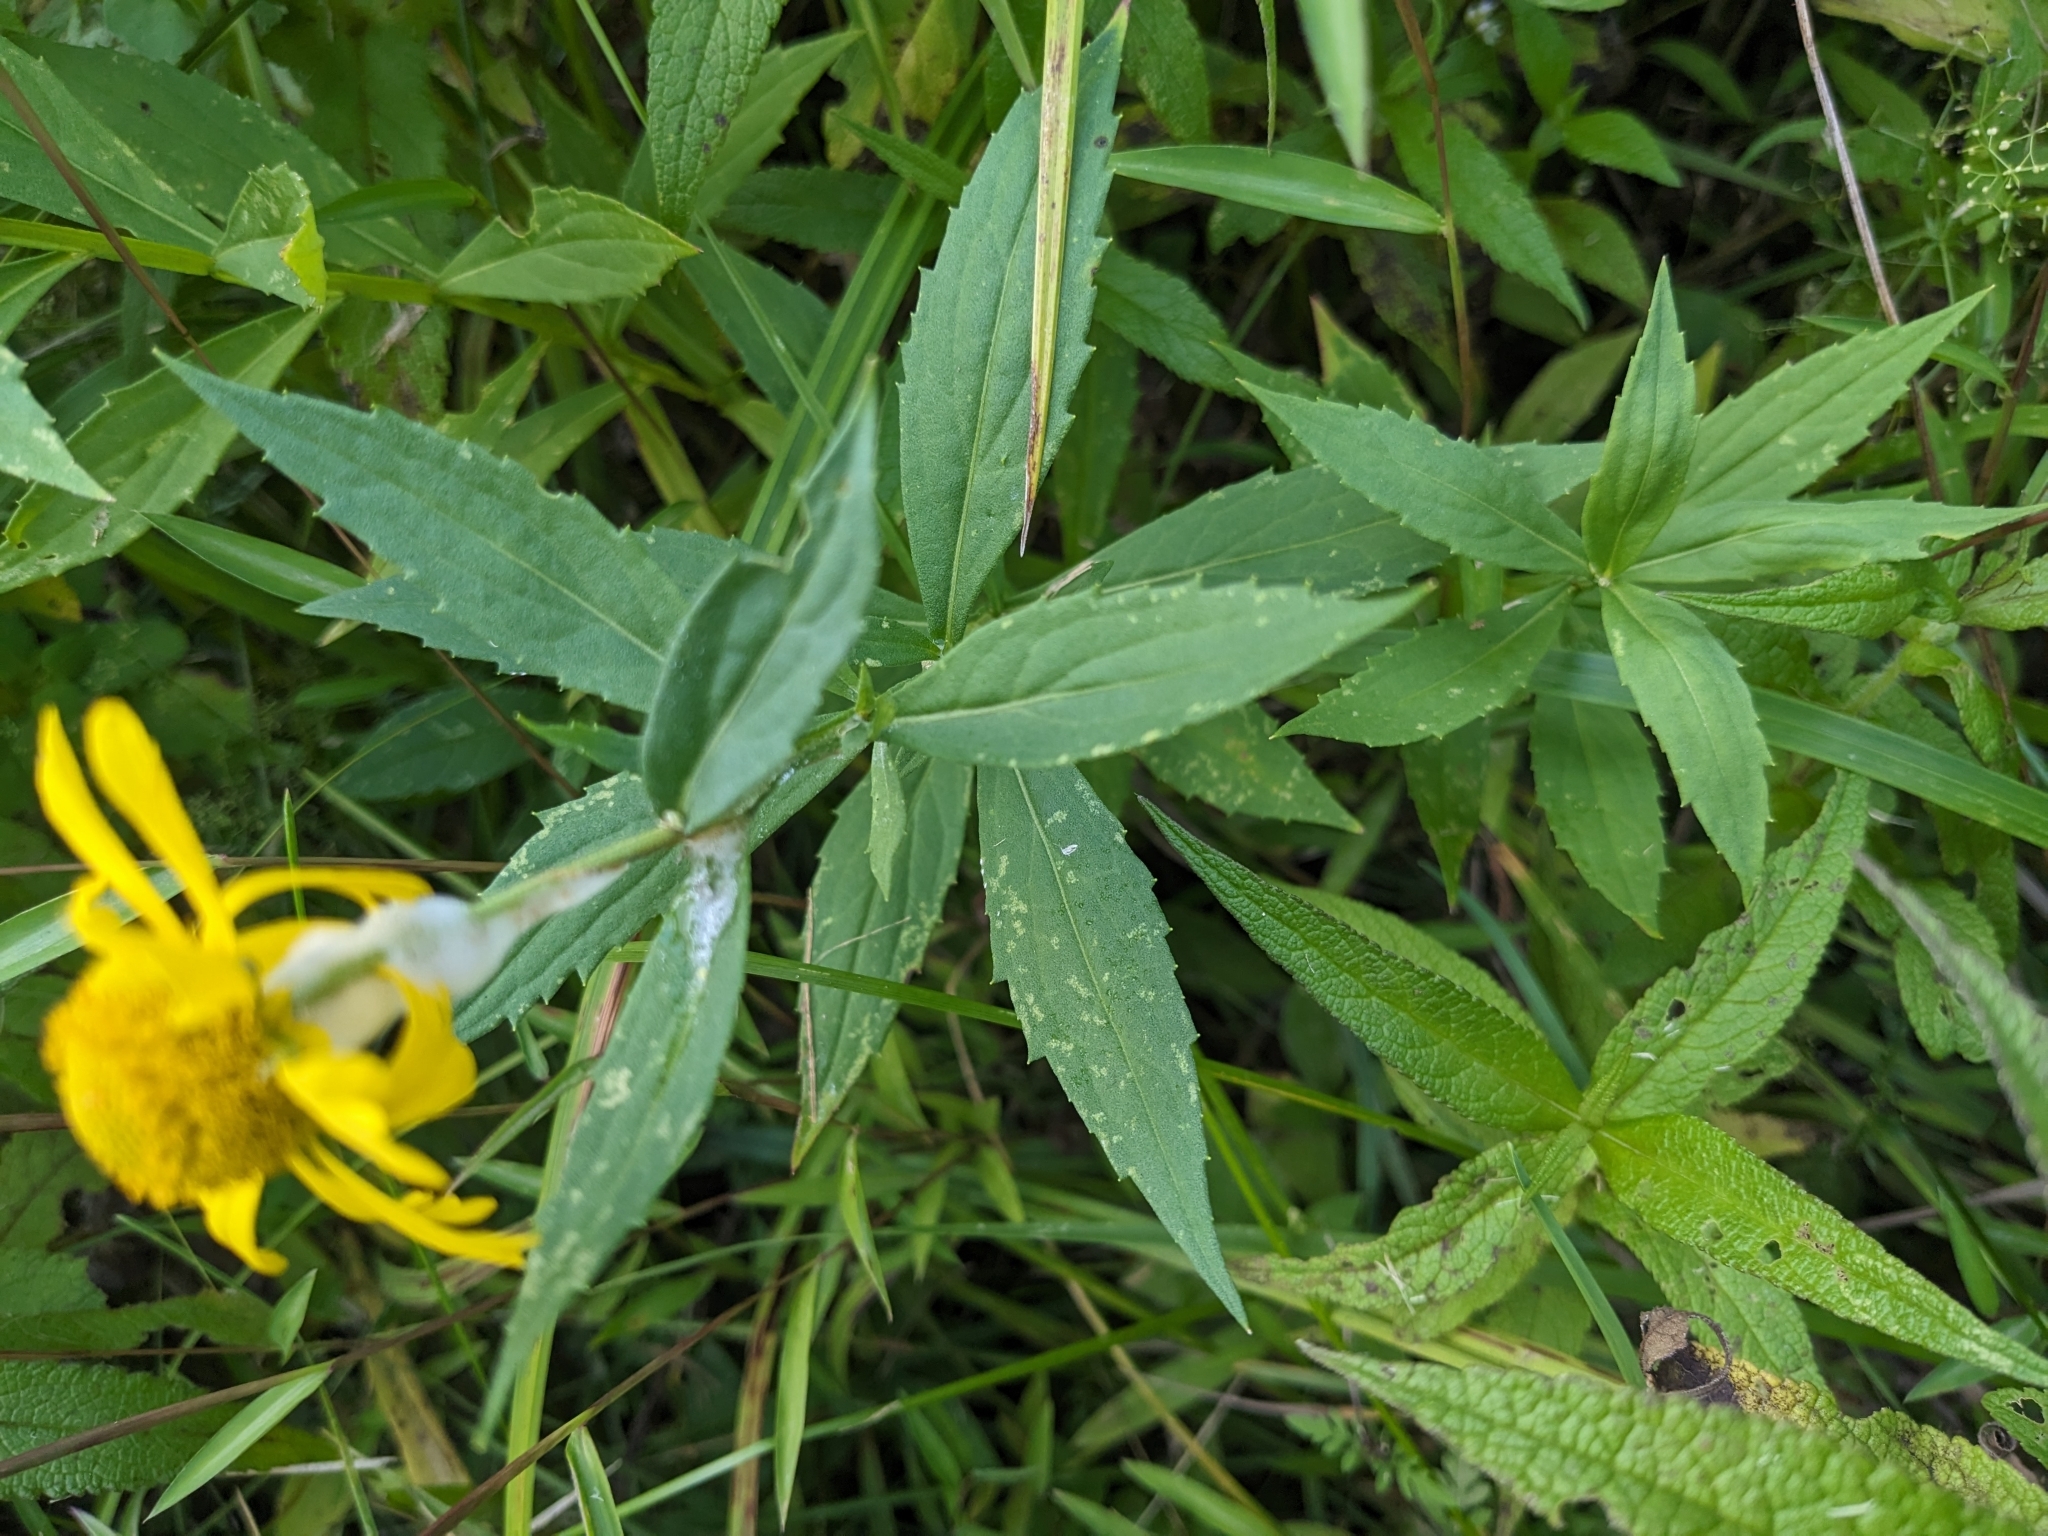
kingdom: Plantae
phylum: Tracheophyta
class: Magnoliopsida
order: Asterales
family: Asteraceae
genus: Helenium
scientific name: Helenium autumnale
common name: Sneezeweed
